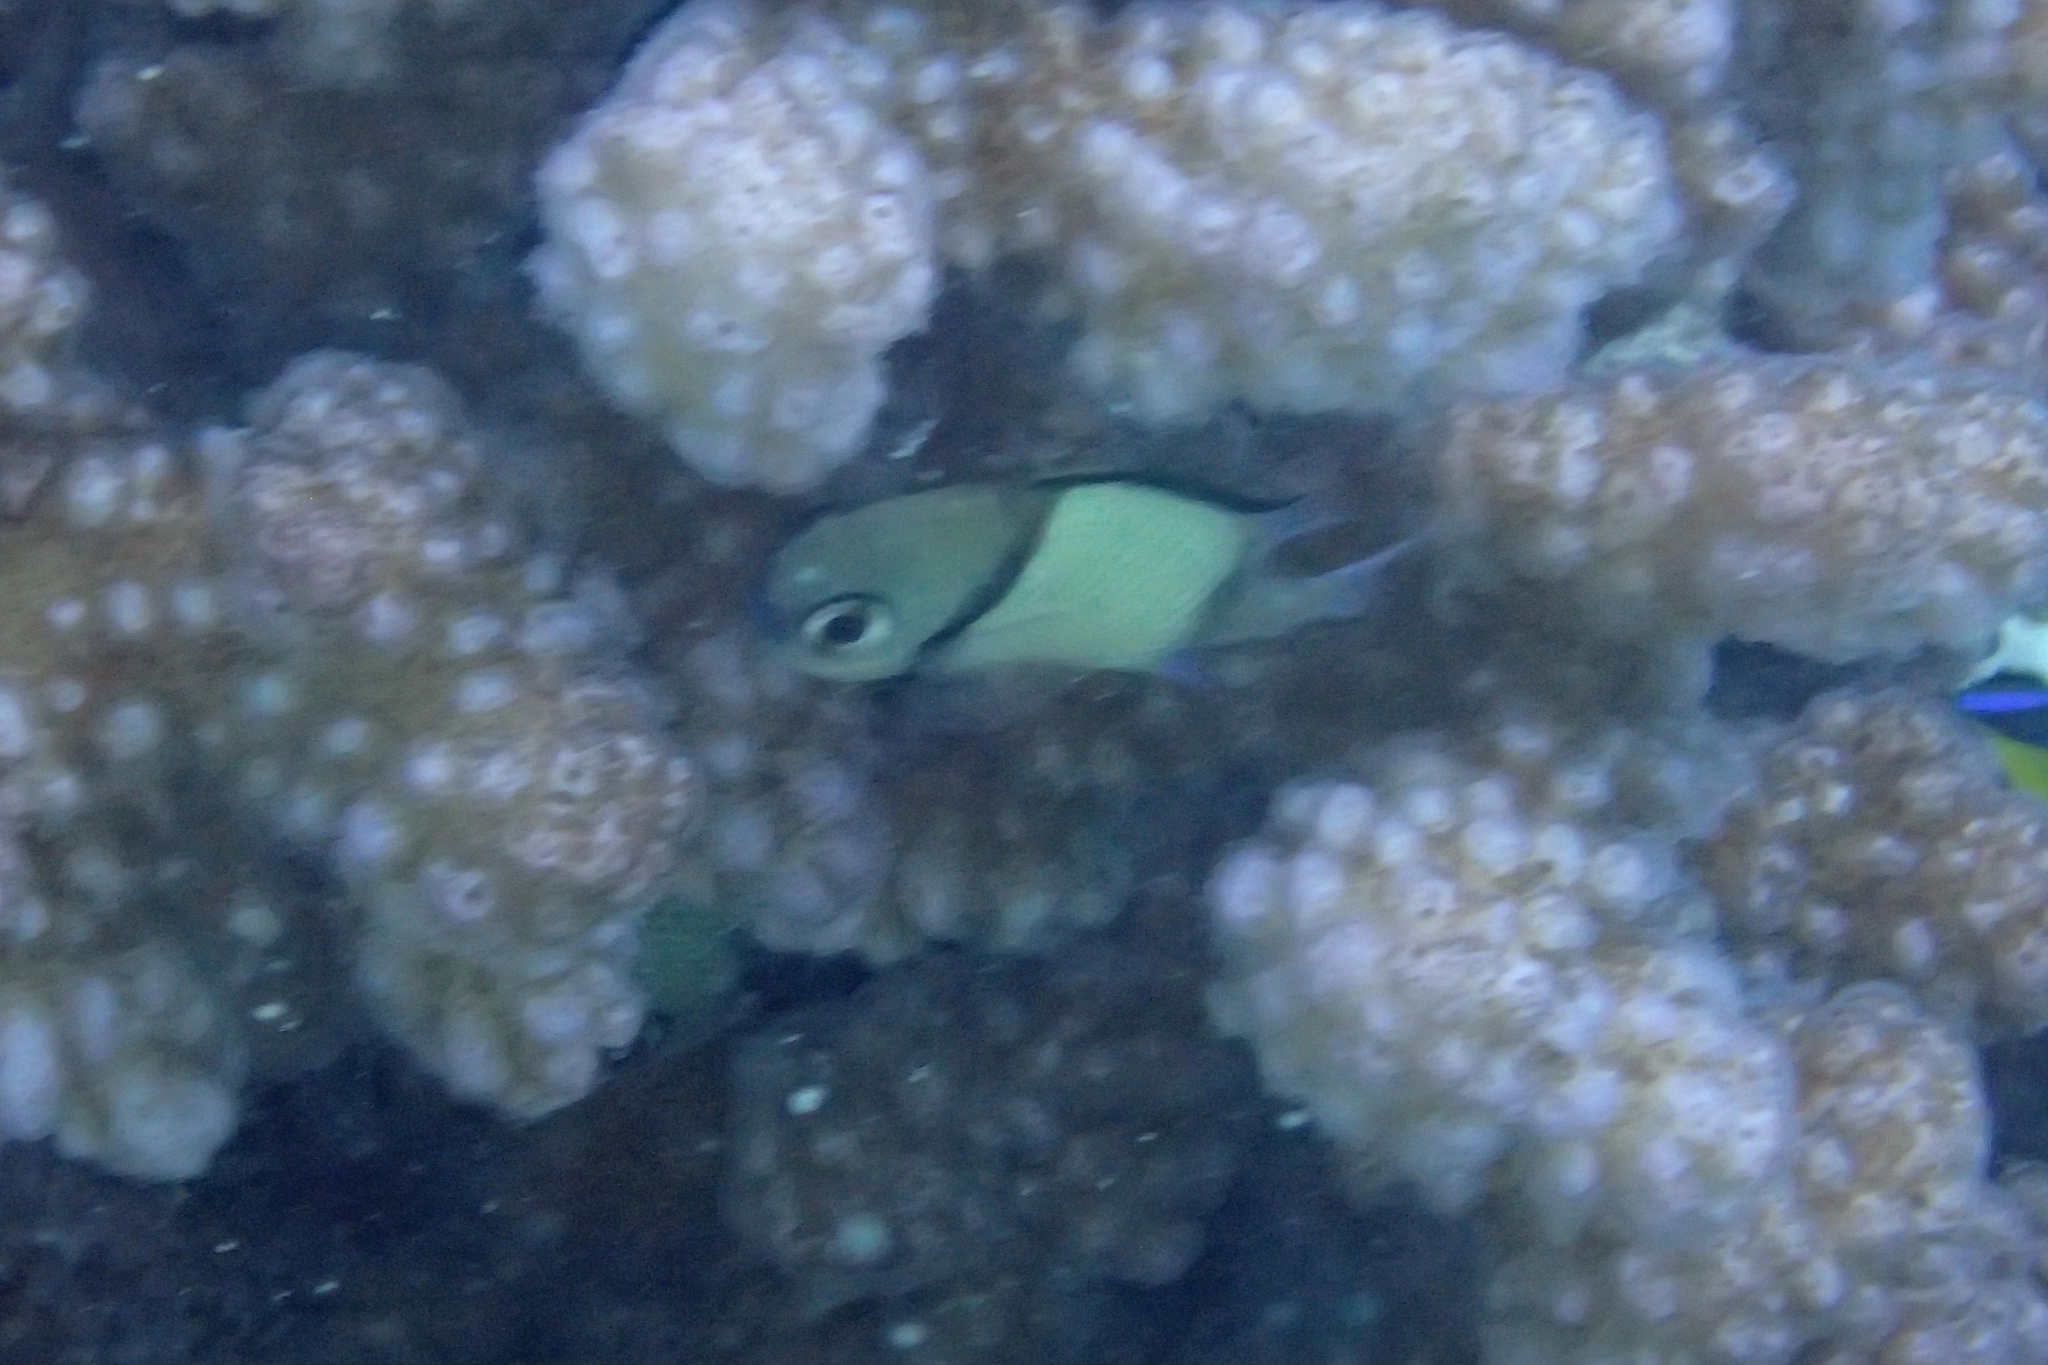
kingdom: Animalia
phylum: Chordata
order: Perciformes
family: Pomacentridae
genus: Dascyllus
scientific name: Dascyllus reticulatus
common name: Reticulated dascyllus
